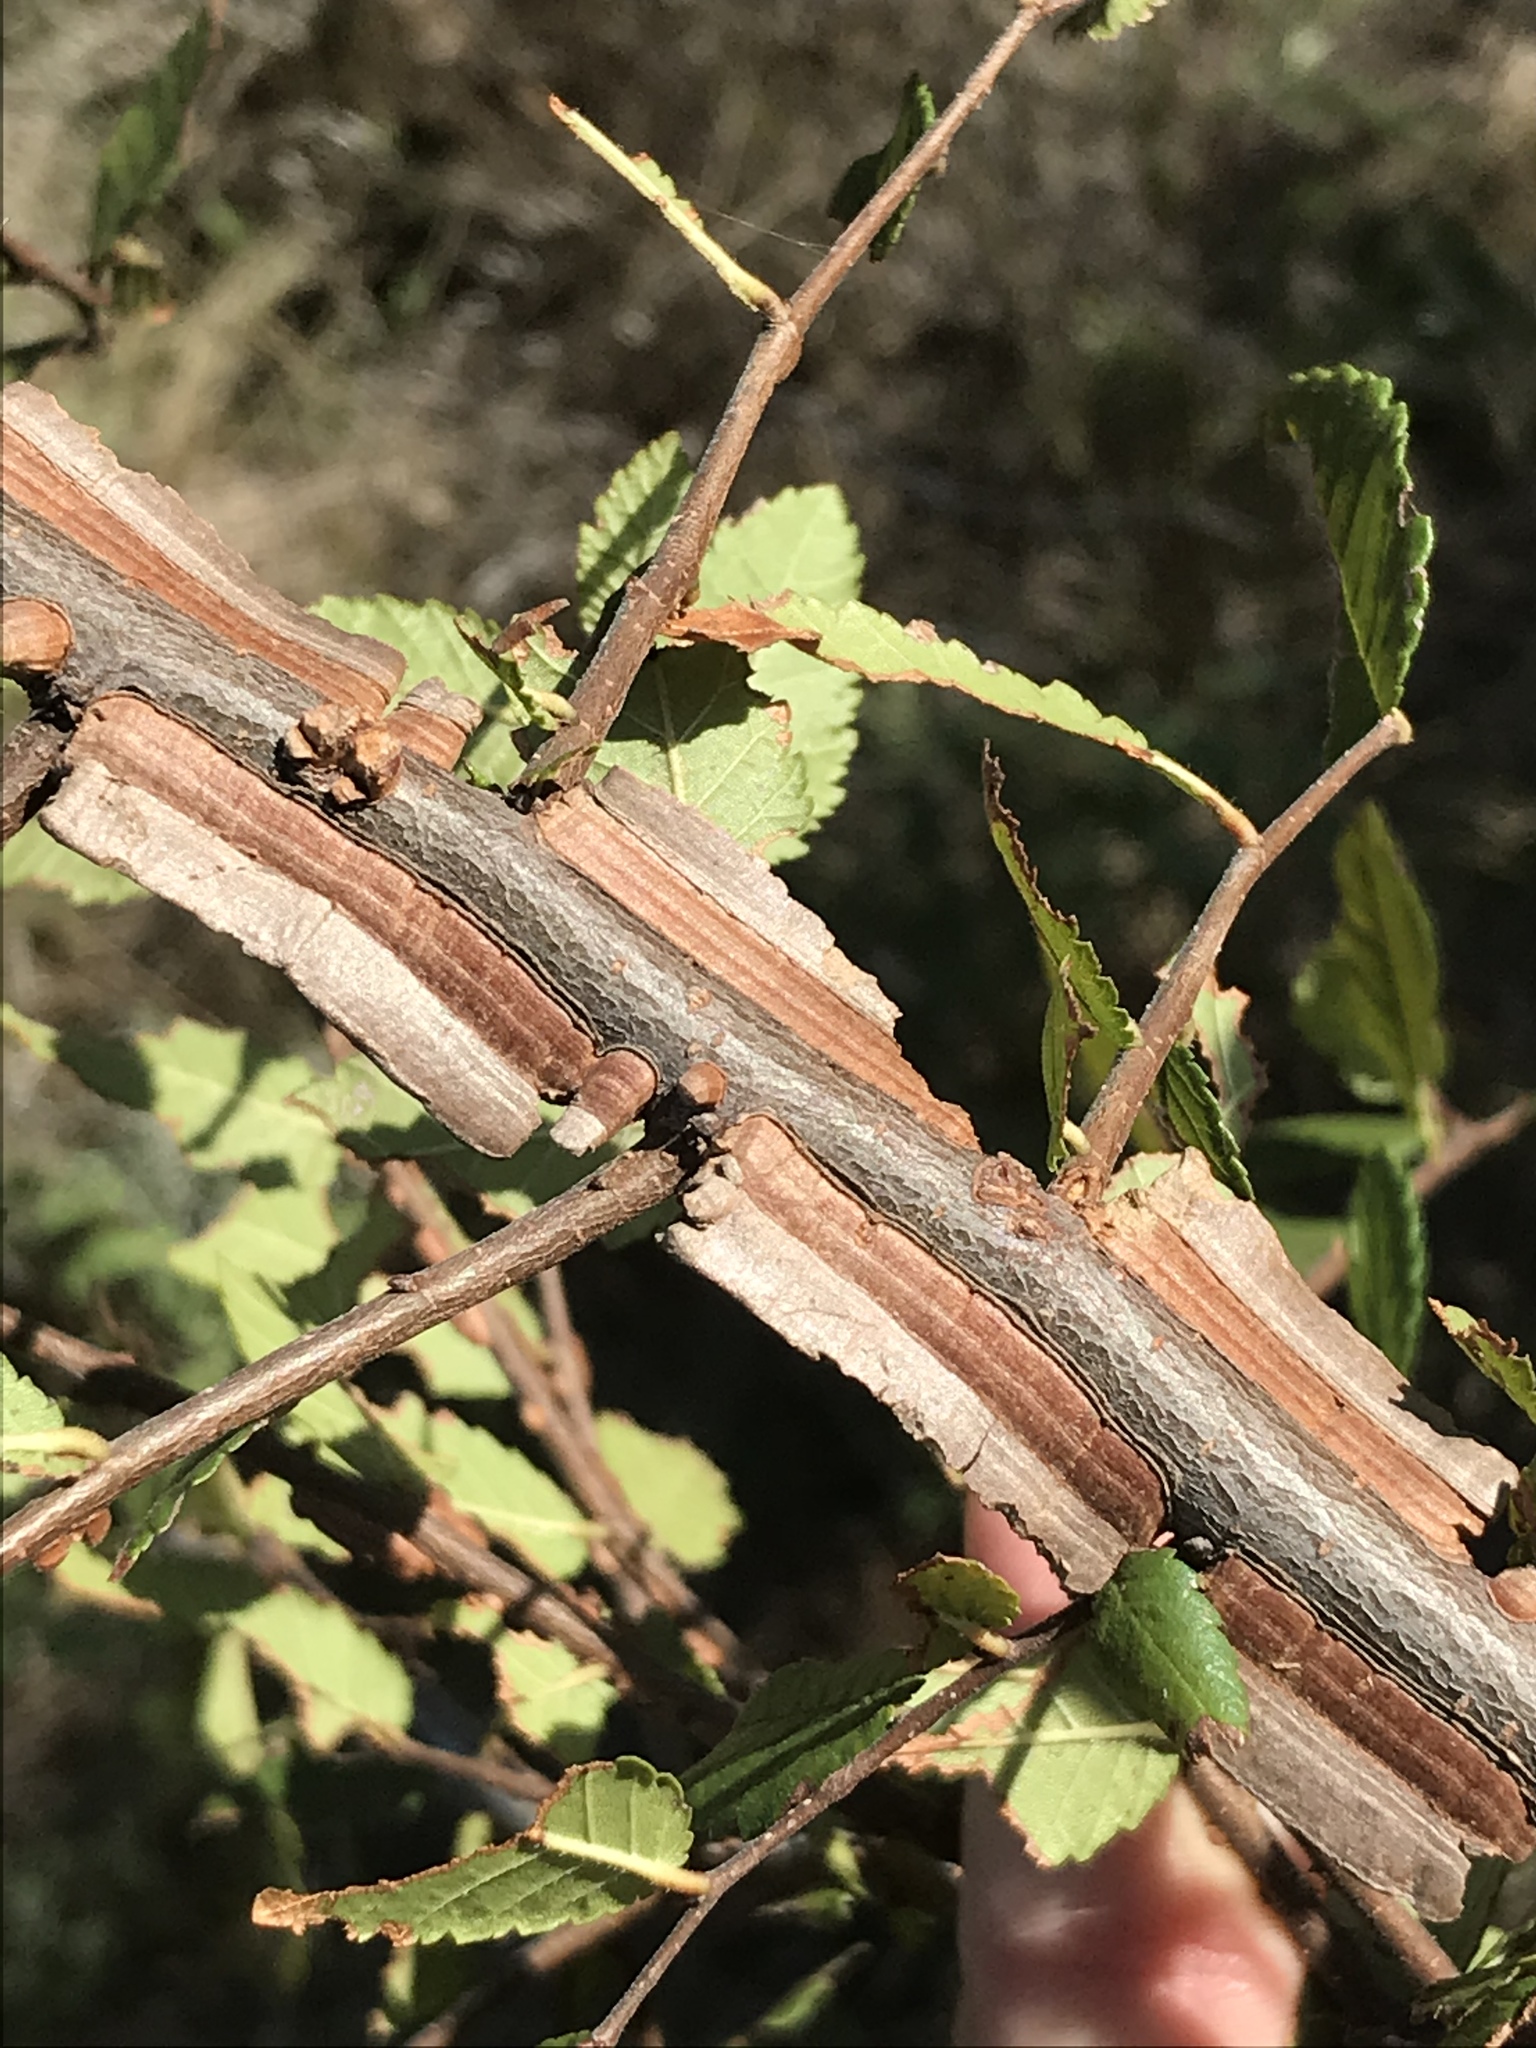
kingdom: Plantae
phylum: Tracheophyta
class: Magnoliopsida
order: Rosales
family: Ulmaceae
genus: Ulmus
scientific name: Ulmus crassifolia
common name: Basket elm
